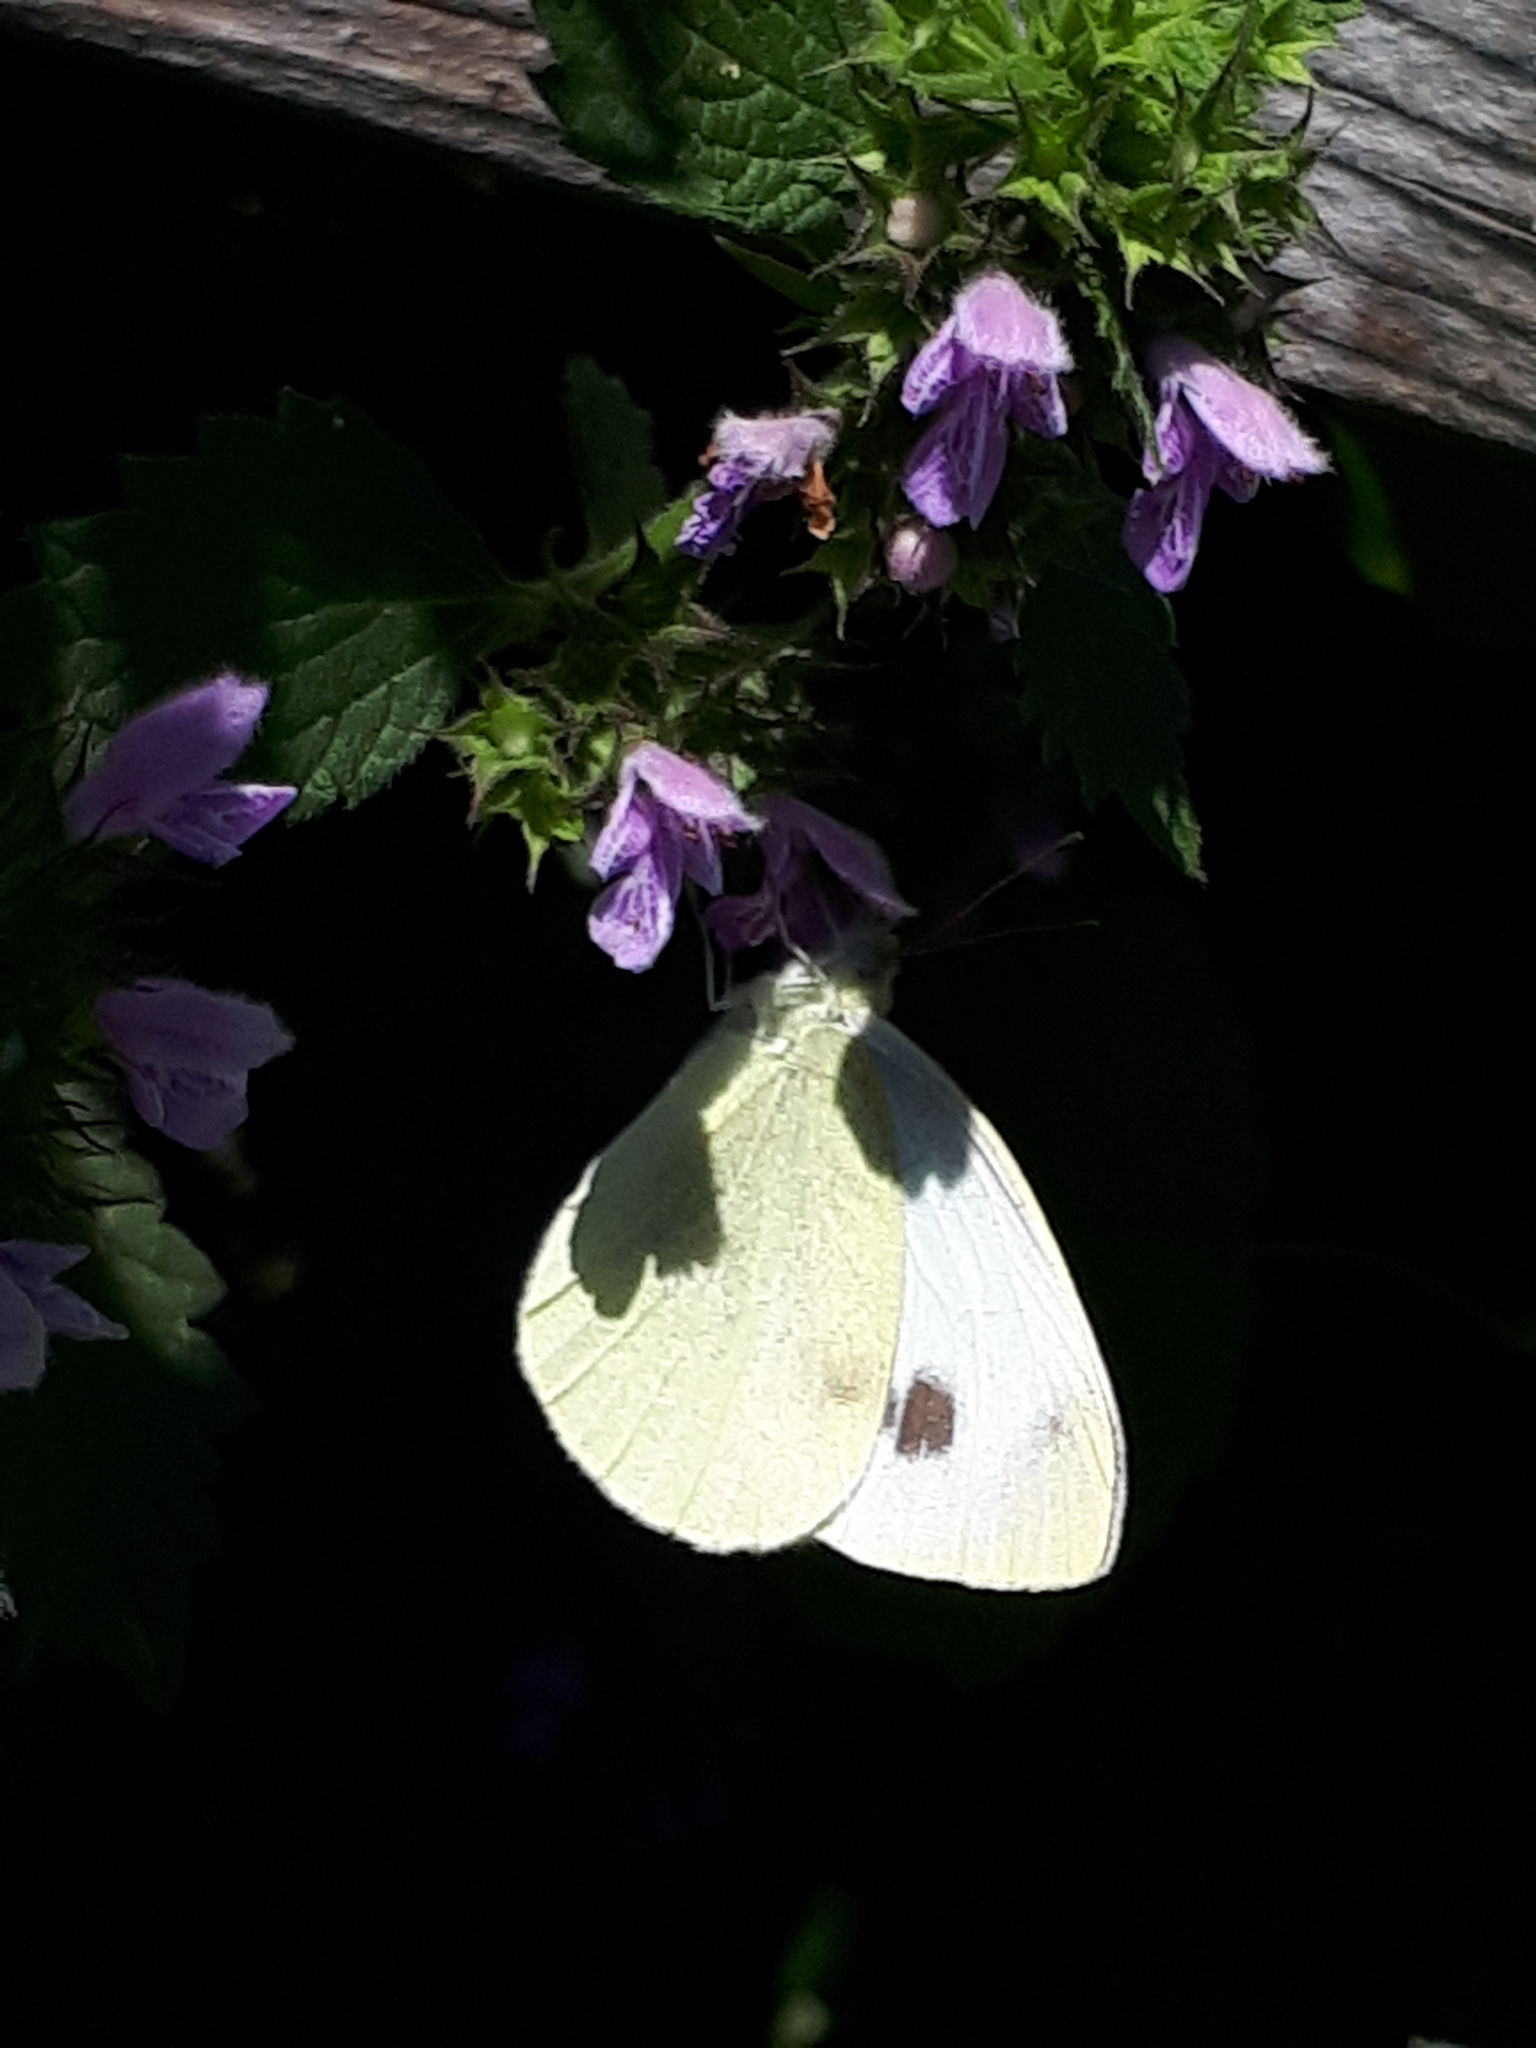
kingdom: Animalia
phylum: Arthropoda
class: Insecta
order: Lepidoptera
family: Pieridae
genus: Pieris
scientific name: Pieris mannii
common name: Southern small white
